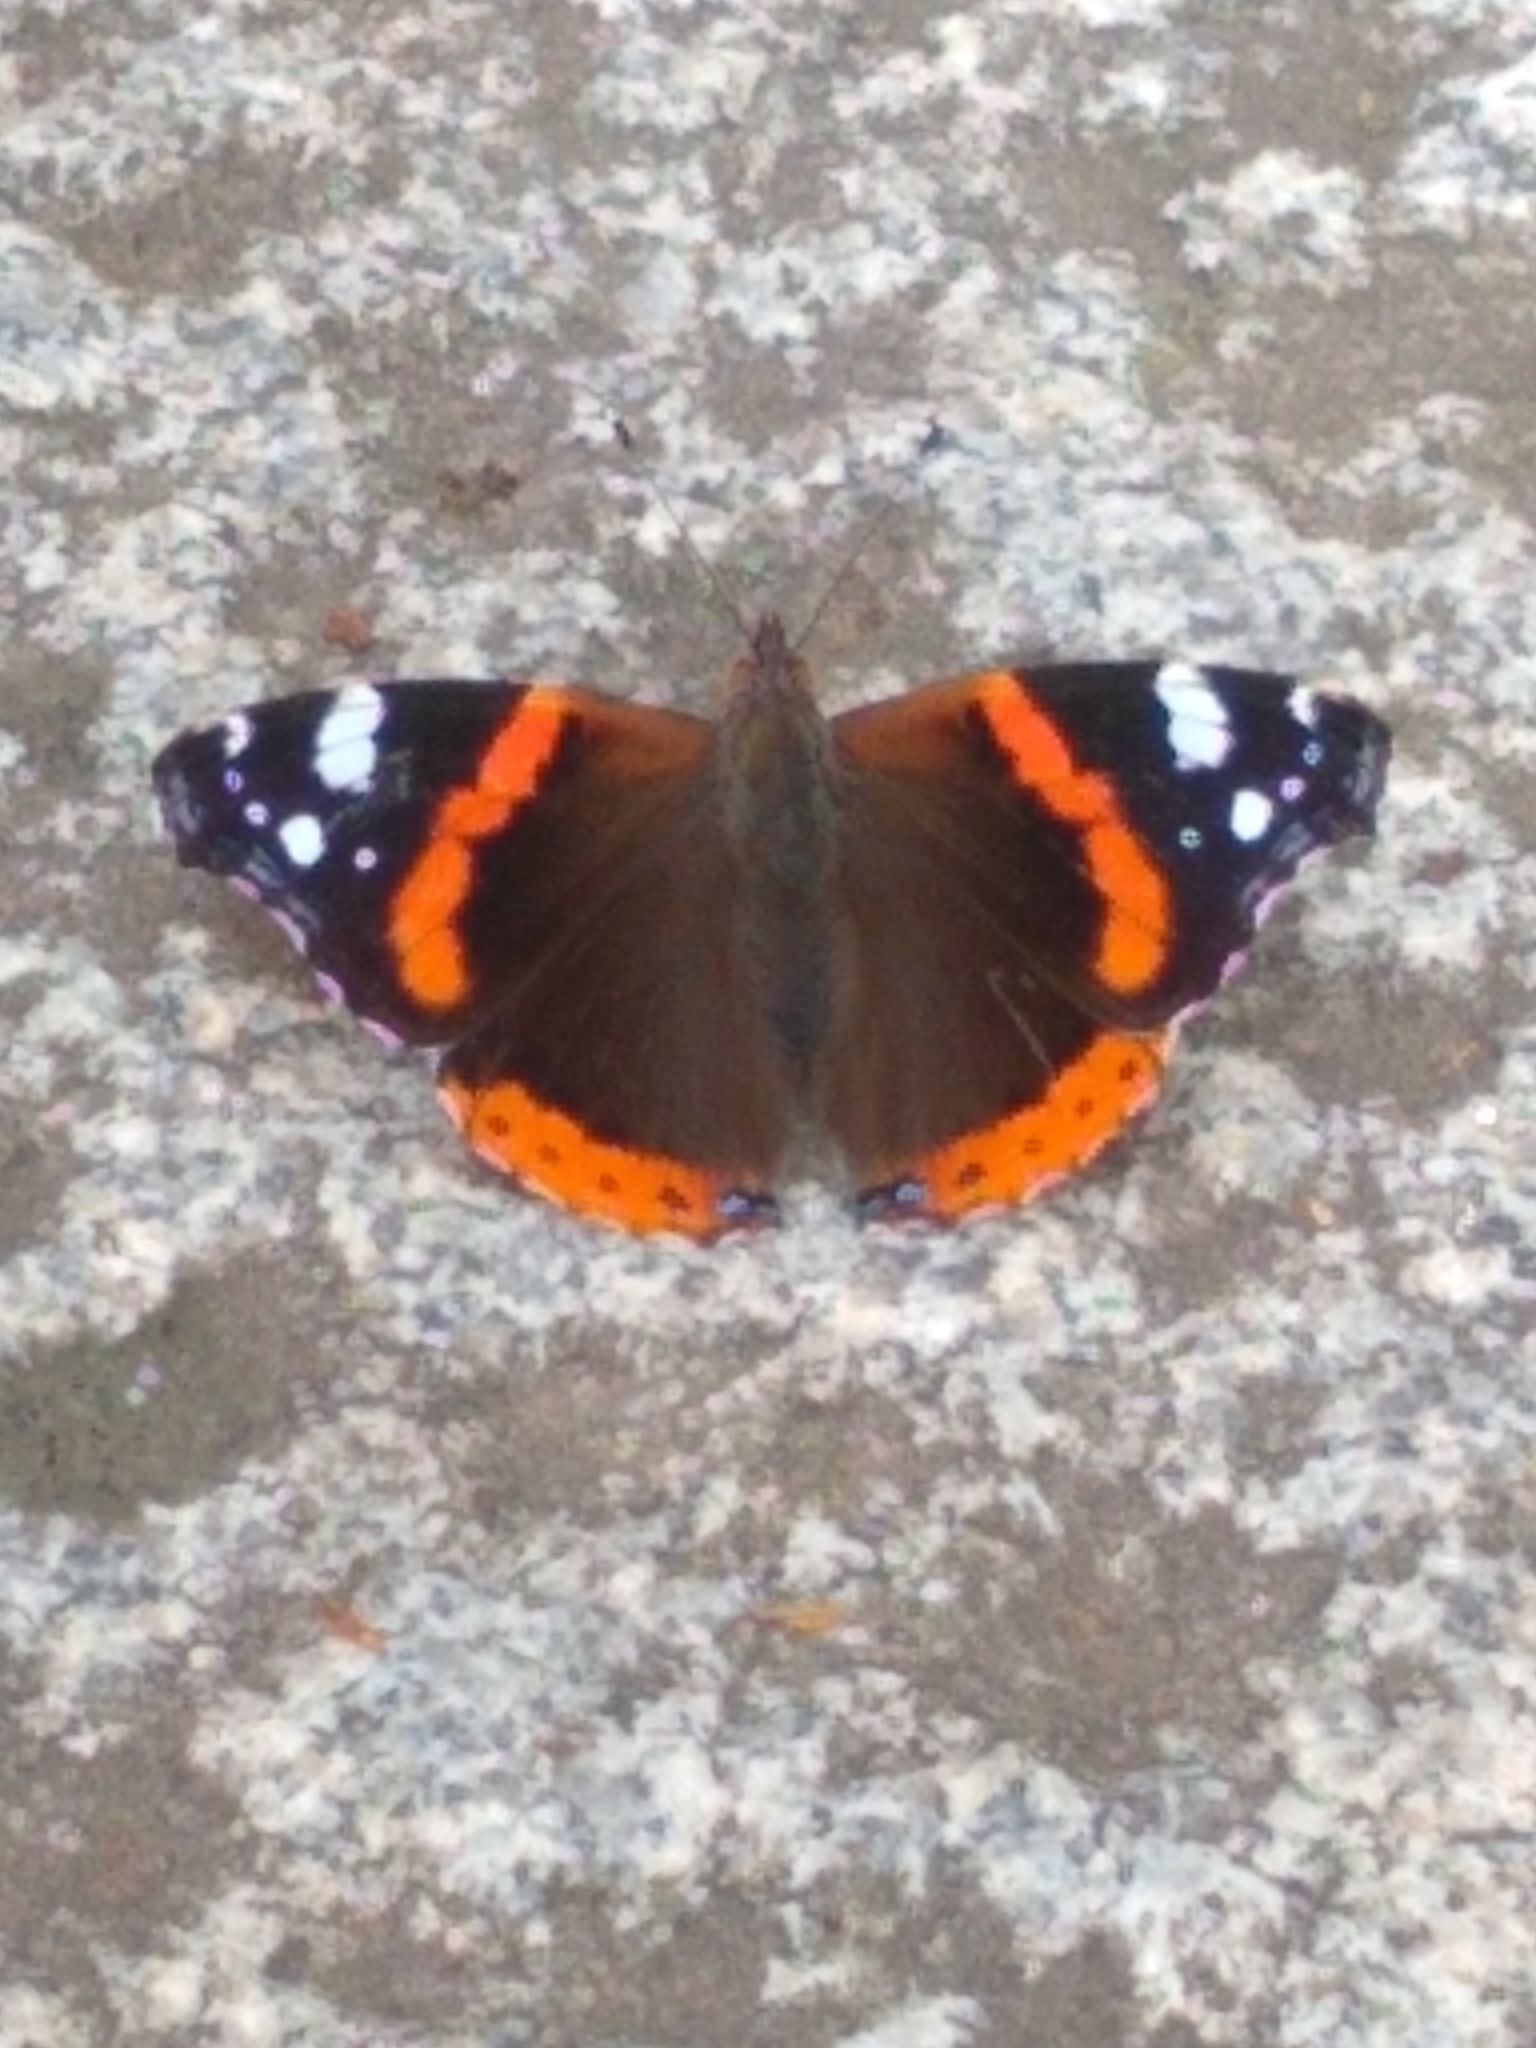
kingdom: Animalia
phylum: Arthropoda
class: Insecta
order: Lepidoptera
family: Nymphalidae
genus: Vanessa
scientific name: Vanessa atalanta
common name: Red admiral
